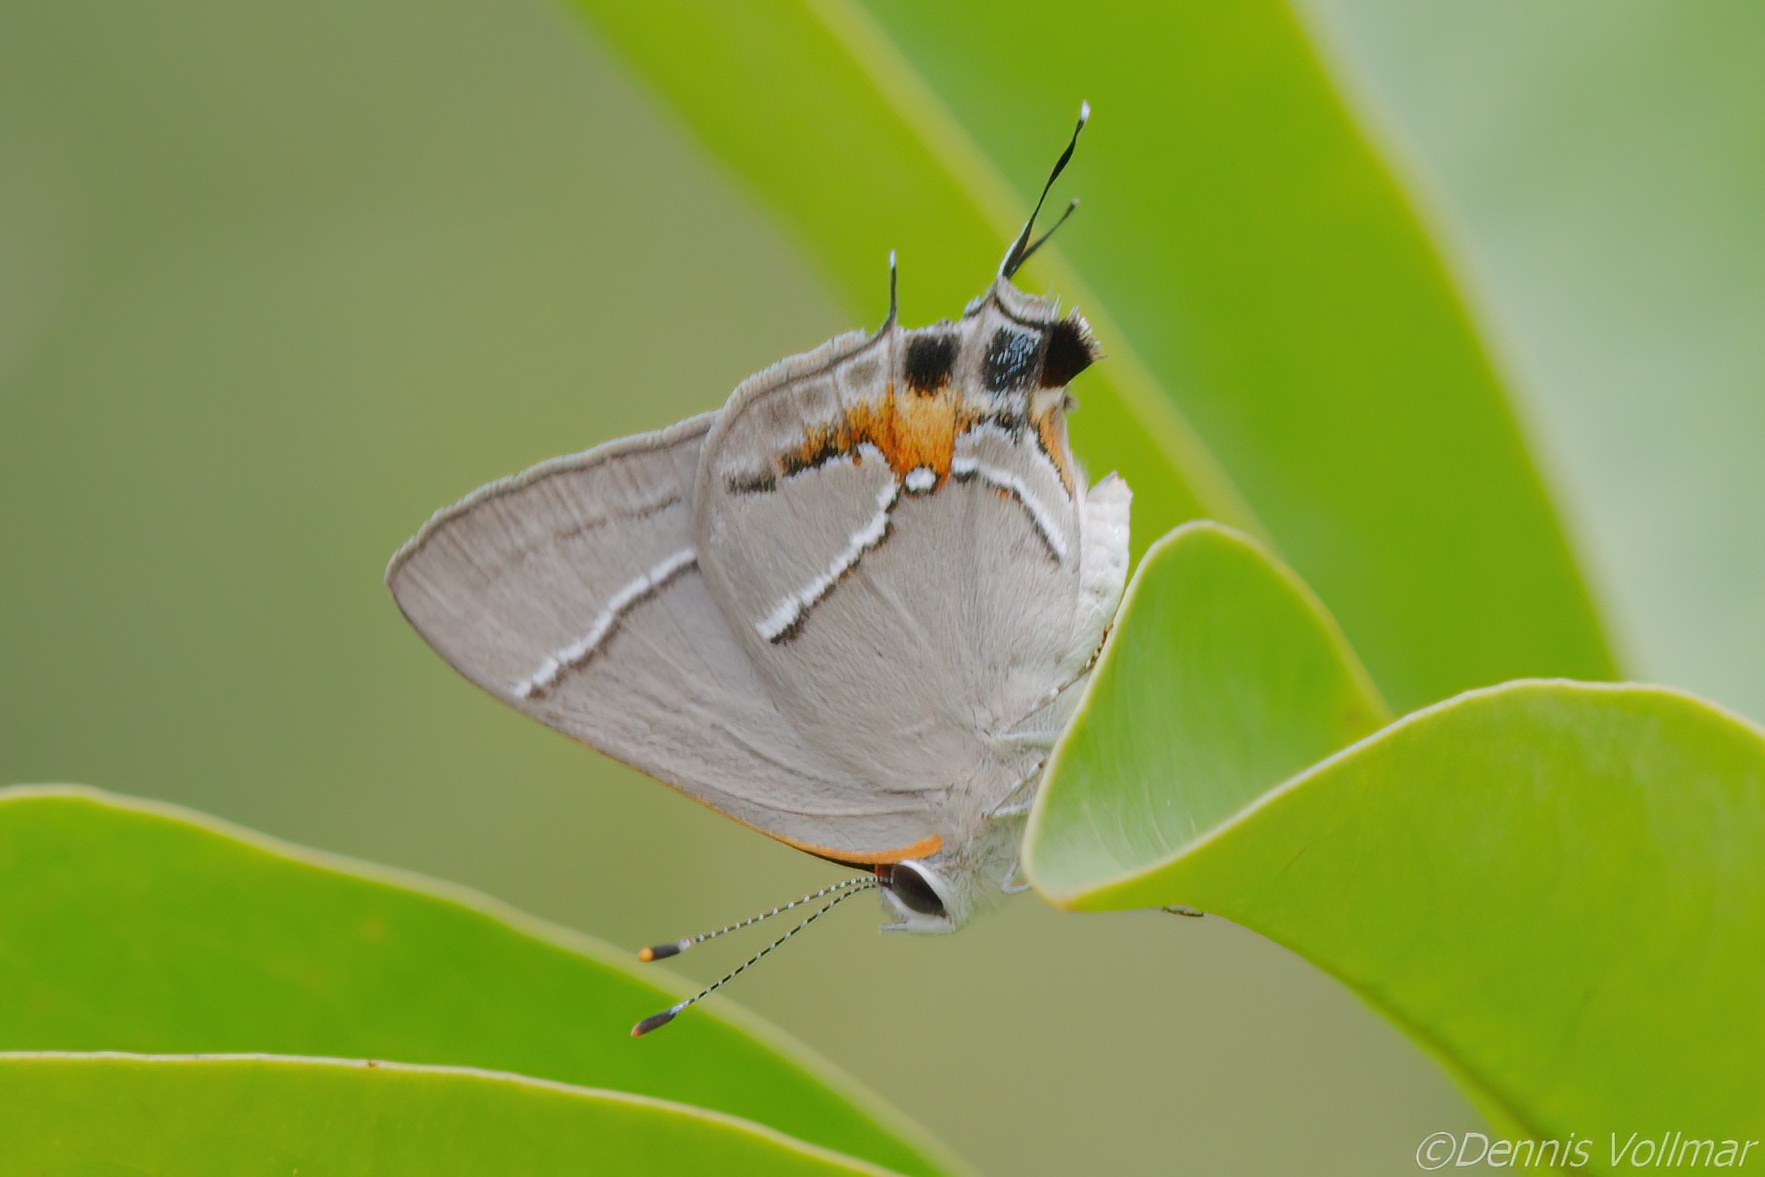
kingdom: Animalia
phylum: Arthropoda
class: Insecta
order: Lepidoptera
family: Lycaenidae
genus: Thecla
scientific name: Thecla martialis
